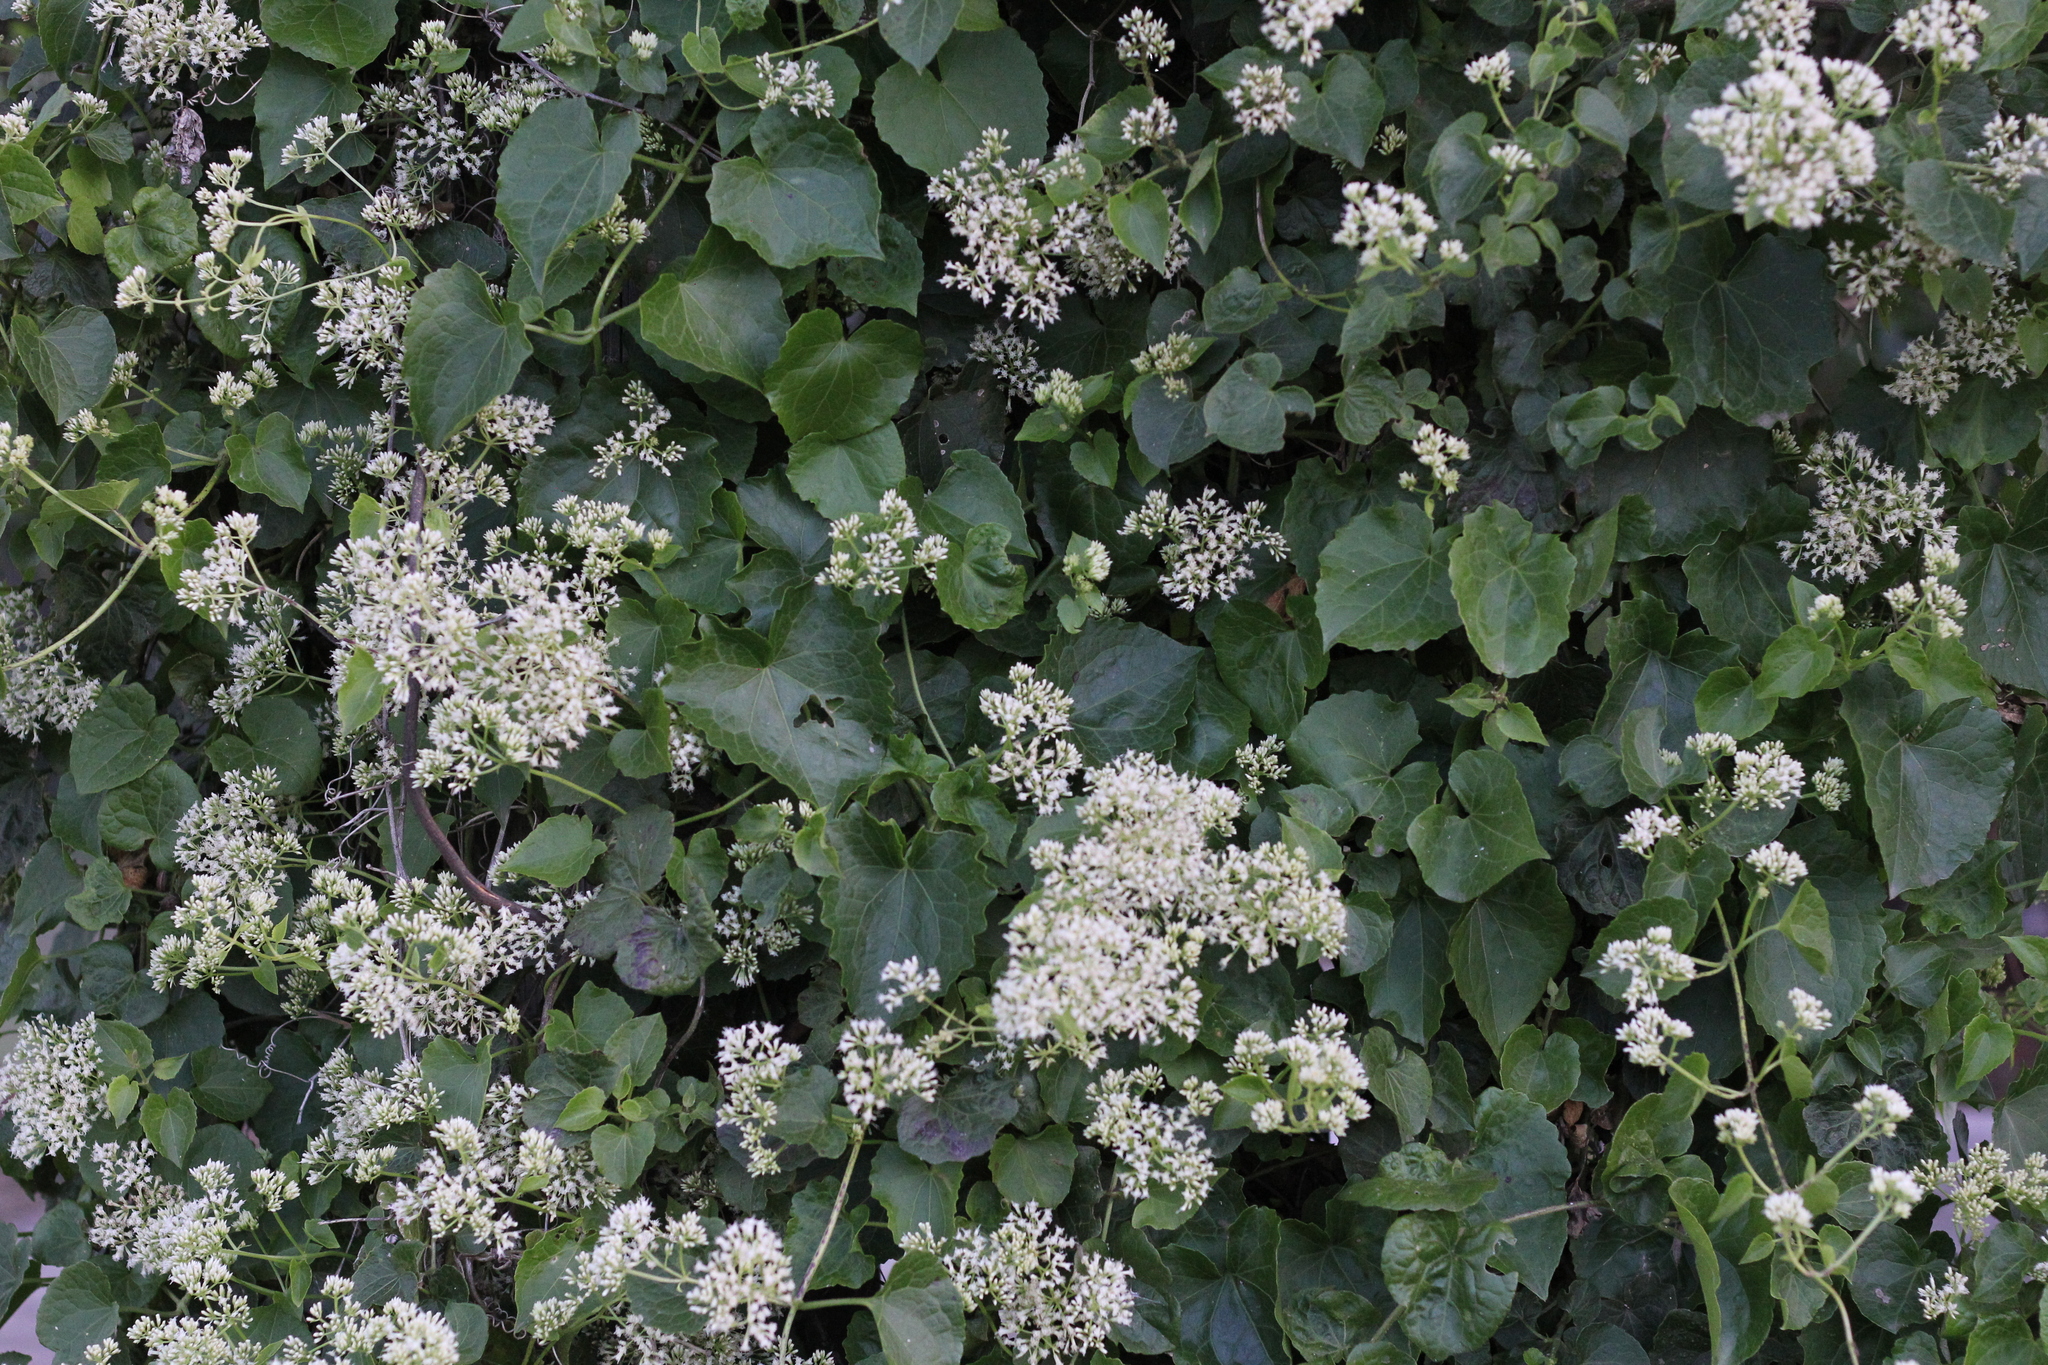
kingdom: Plantae
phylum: Tracheophyta
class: Magnoliopsida
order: Asterales
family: Asteraceae
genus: Mikania
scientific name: Mikania cordifolia
